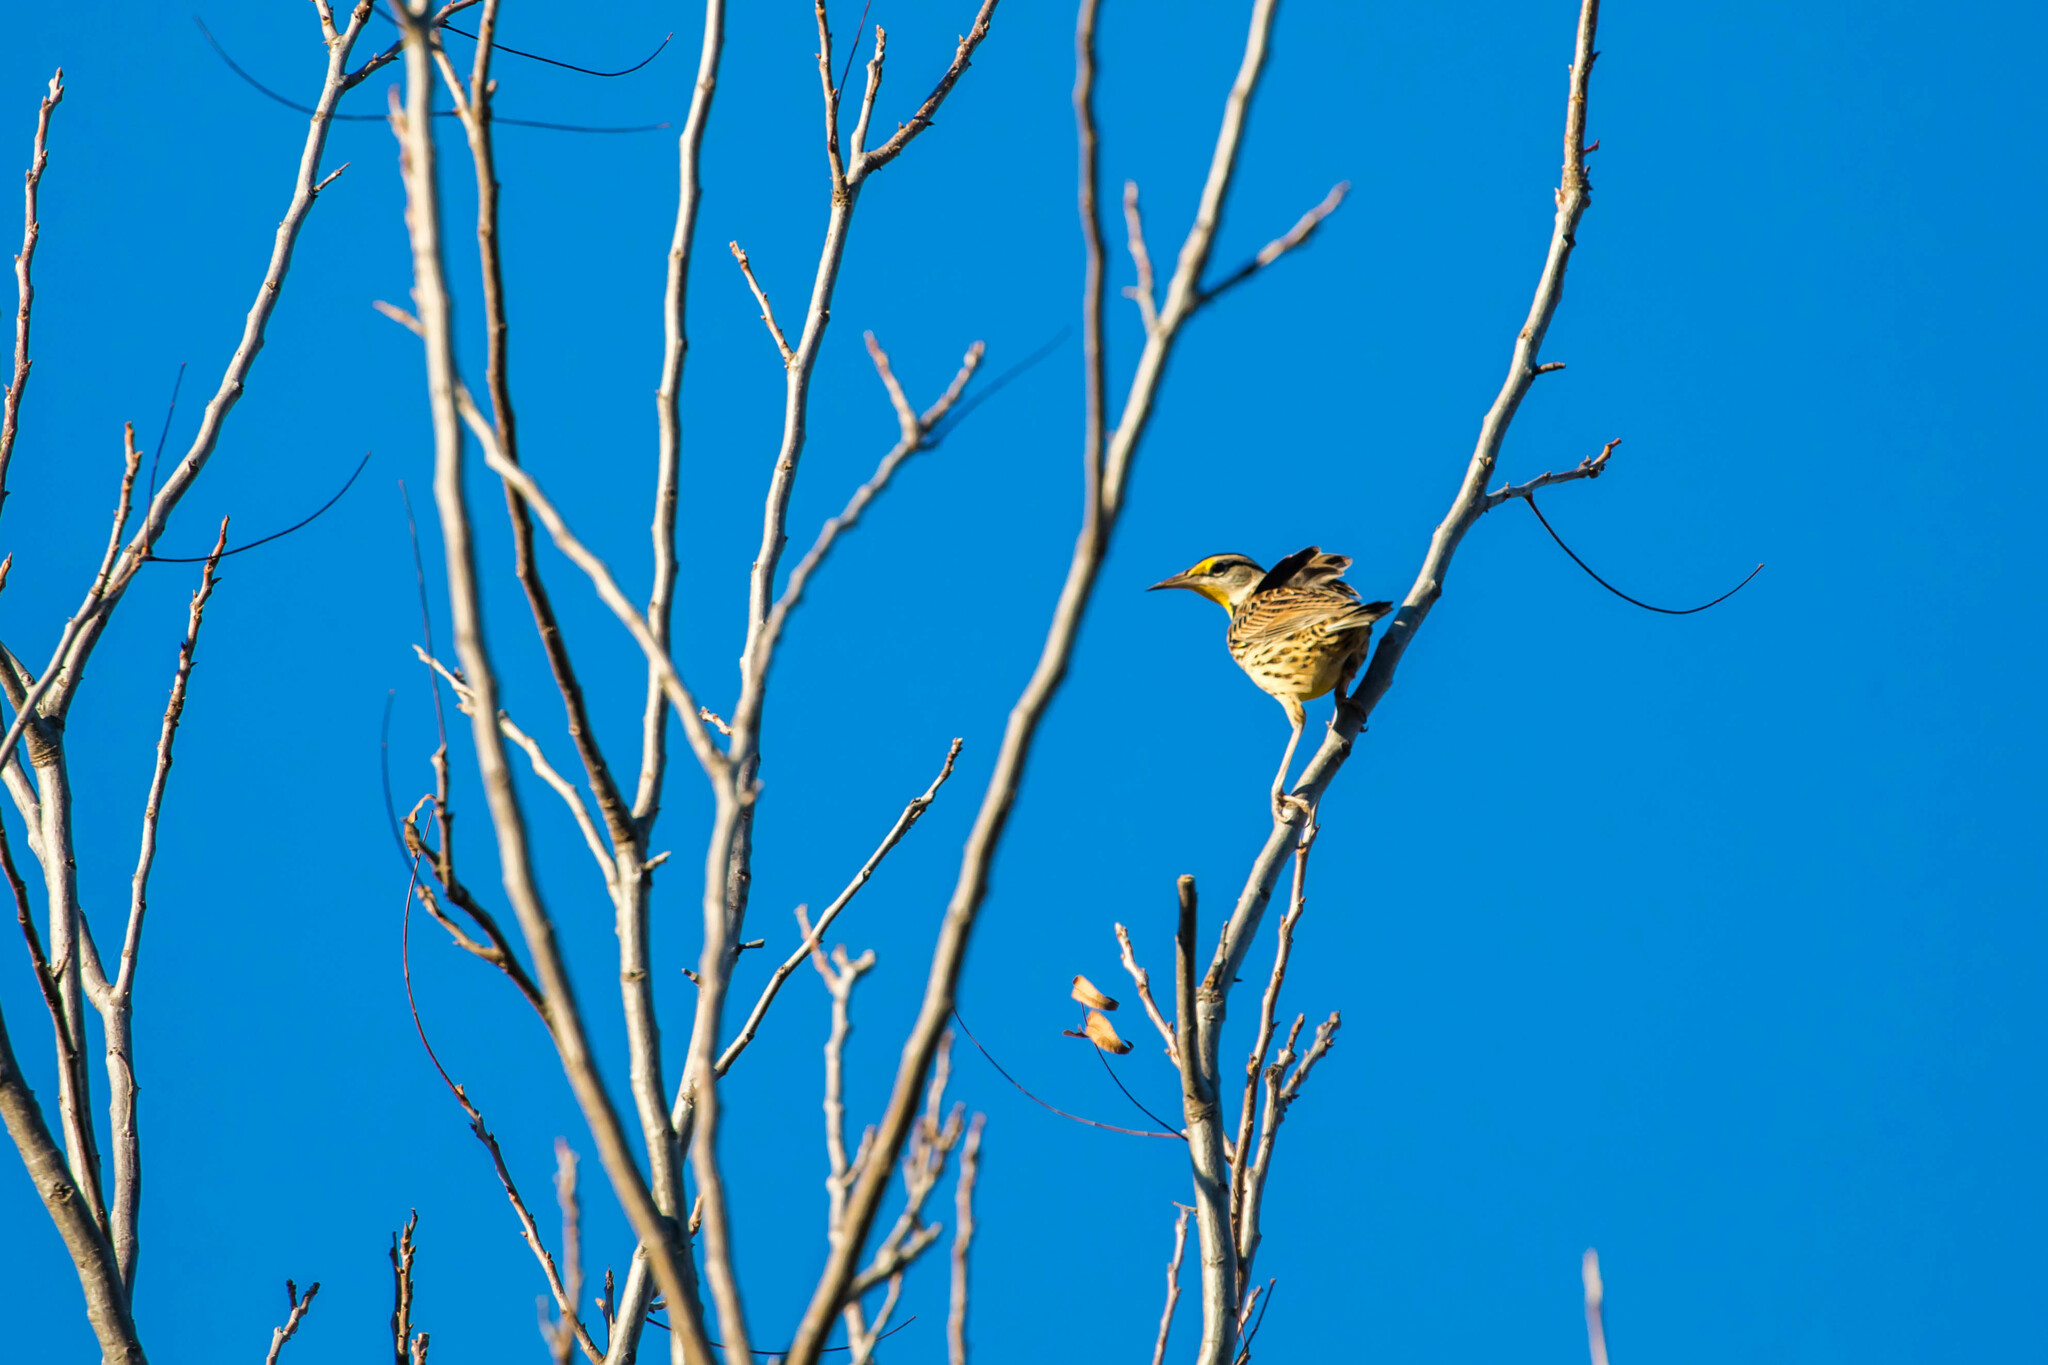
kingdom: Animalia
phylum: Chordata
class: Aves
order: Passeriformes
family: Icteridae
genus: Sturnella
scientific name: Sturnella magna
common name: Eastern meadowlark
